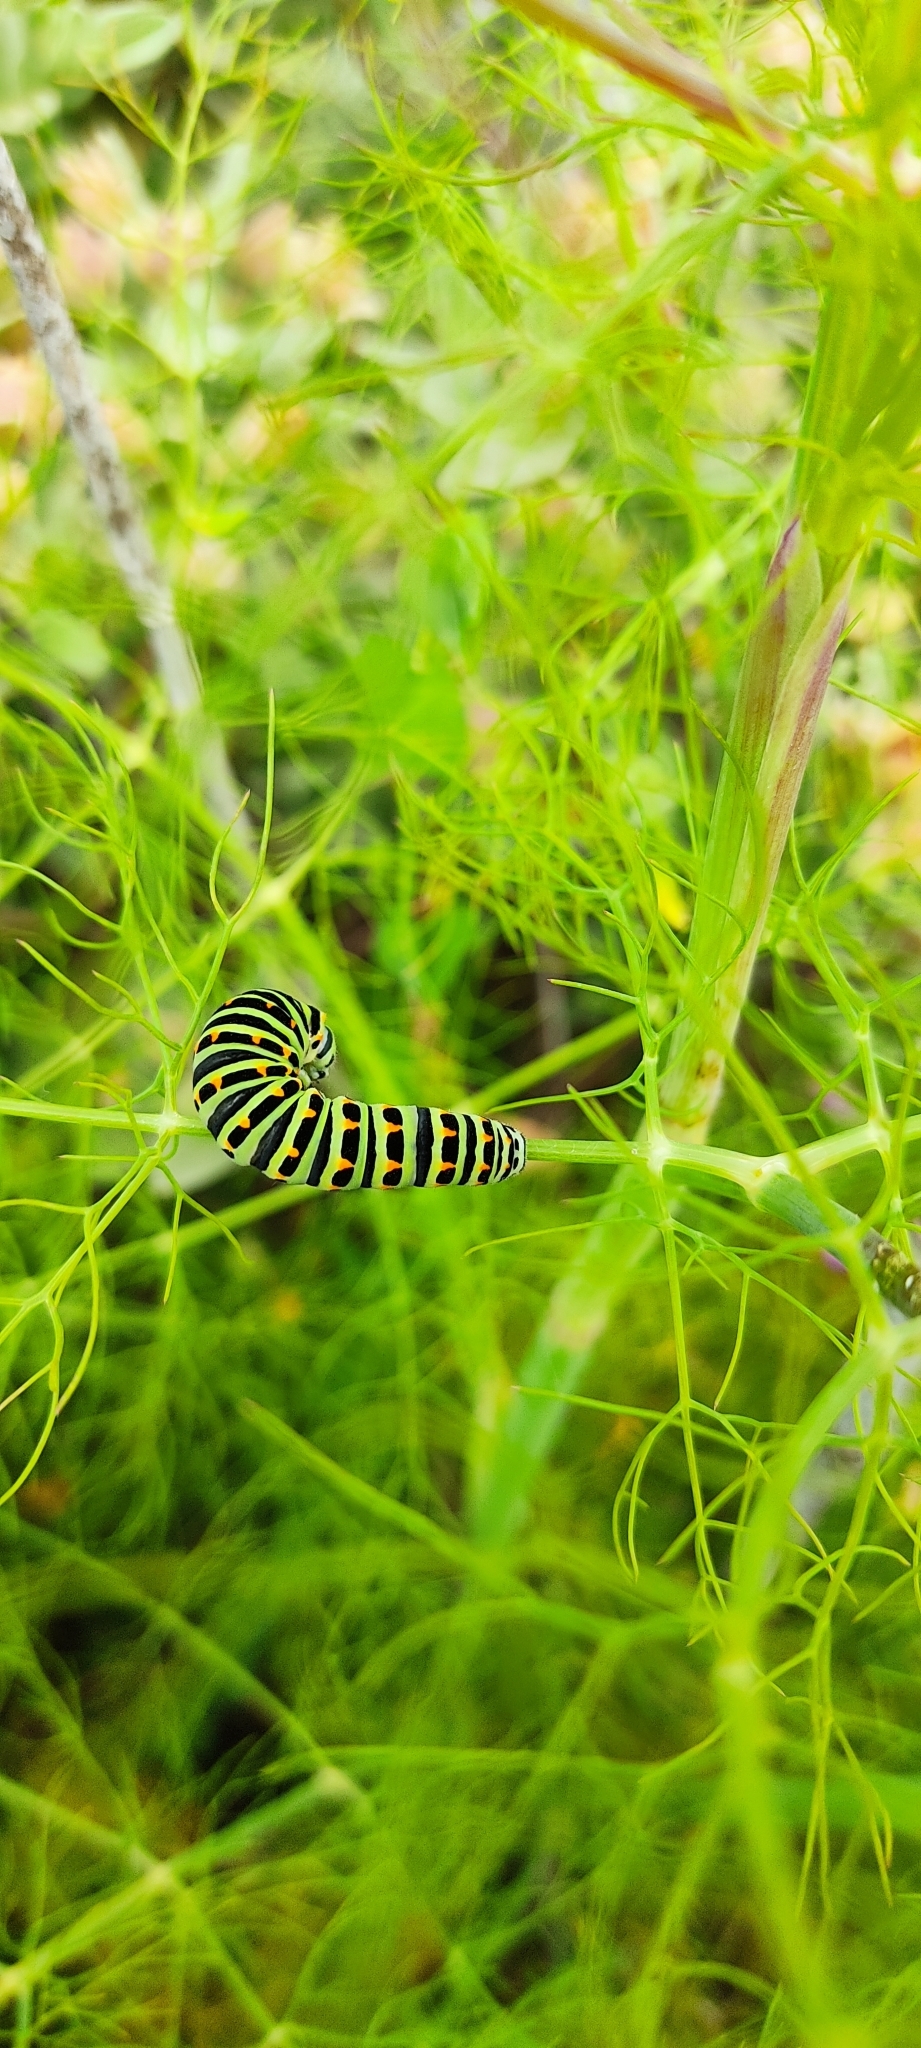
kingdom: Animalia
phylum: Arthropoda
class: Insecta
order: Lepidoptera
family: Papilionidae
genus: Papilio
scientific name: Papilio machaon
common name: Swallowtail
